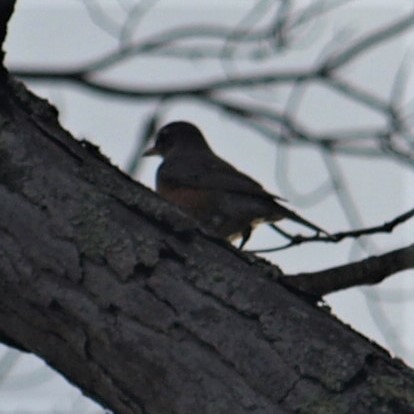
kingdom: Animalia
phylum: Chordata
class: Aves
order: Passeriformes
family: Turdidae
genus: Turdus
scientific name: Turdus migratorius
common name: American robin
